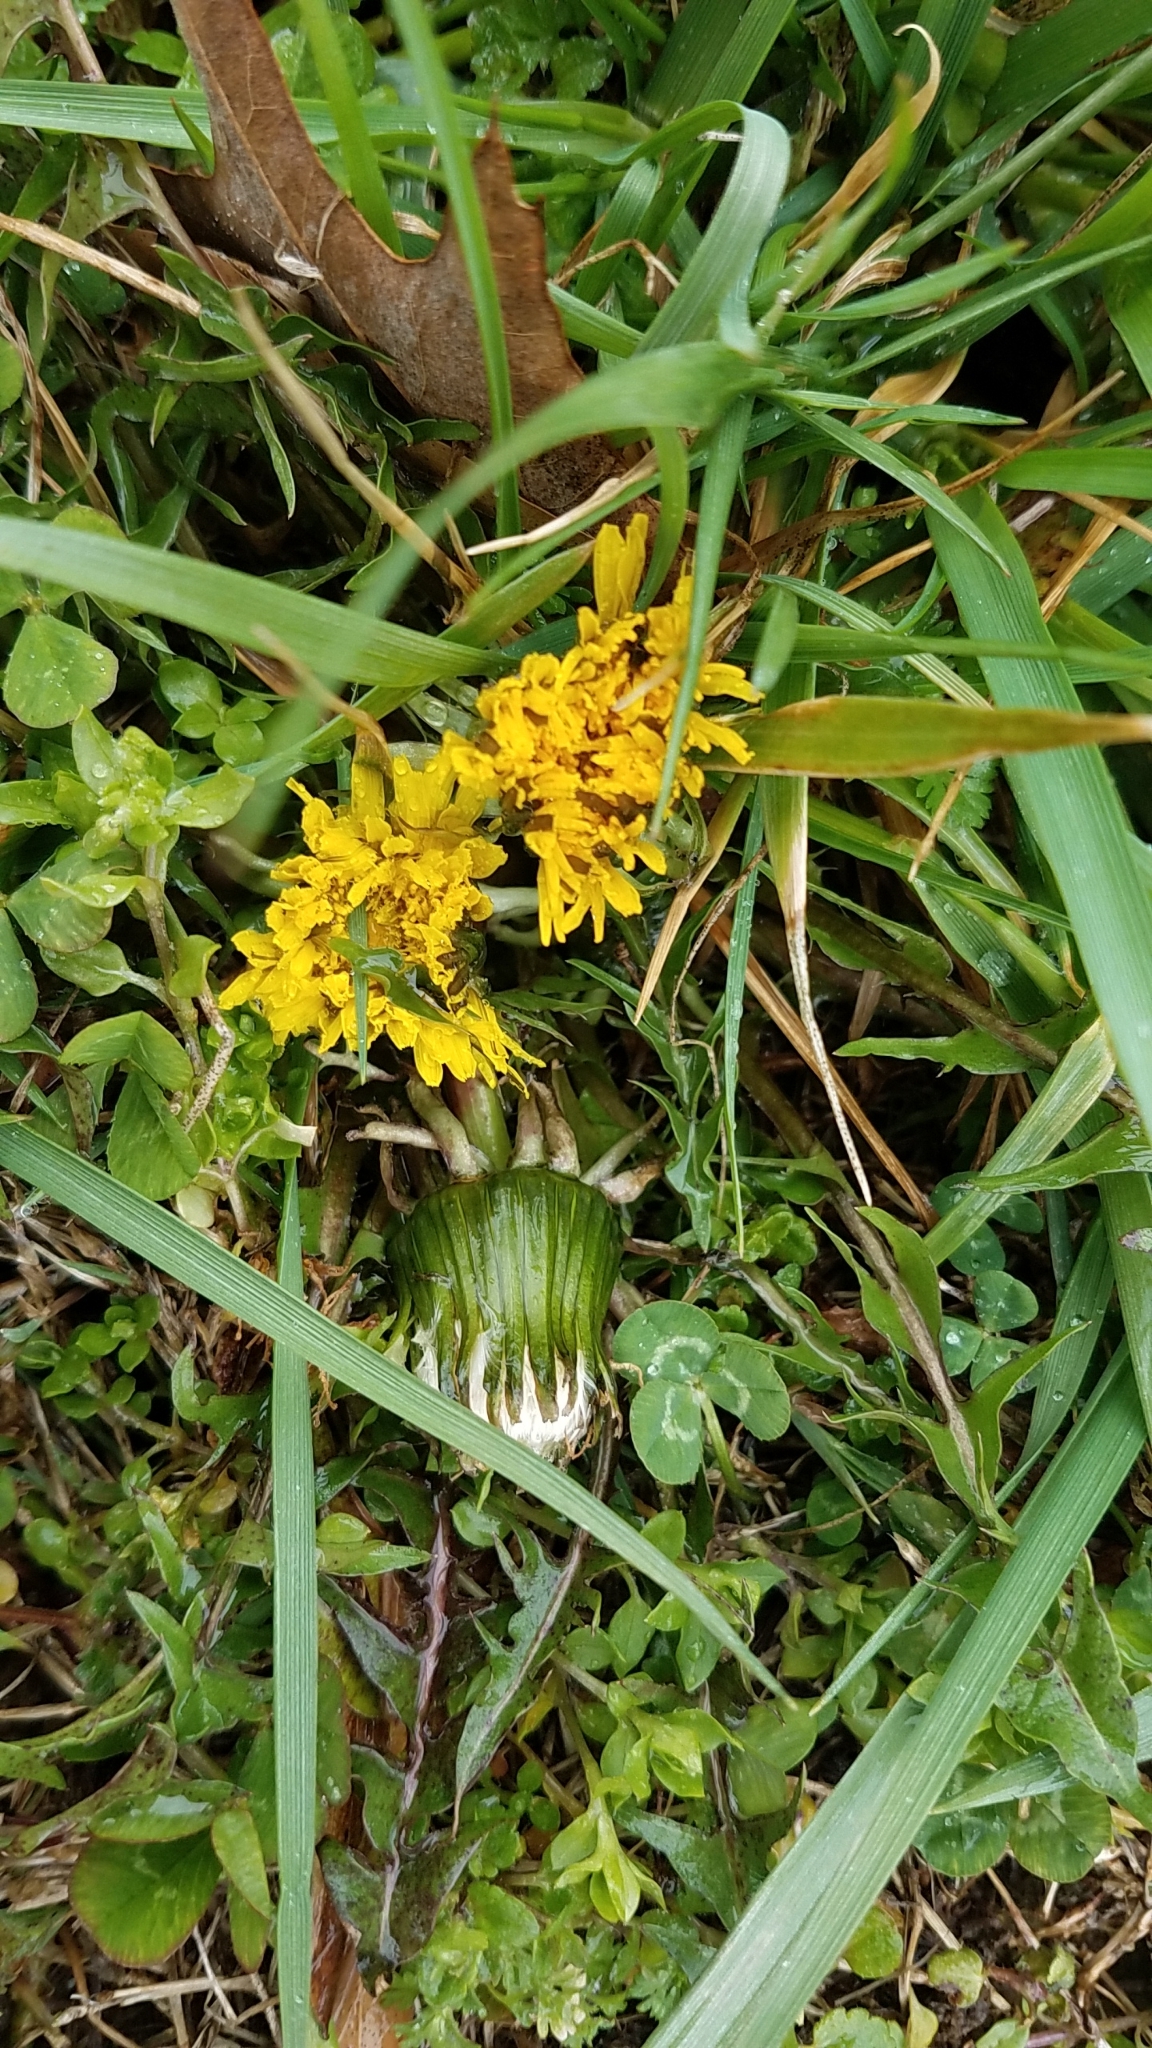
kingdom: Plantae
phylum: Tracheophyta
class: Magnoliopsida
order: Asterales
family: Asteraceae
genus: Taraxacum
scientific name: Taraxacum officinale
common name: Common dandelion
